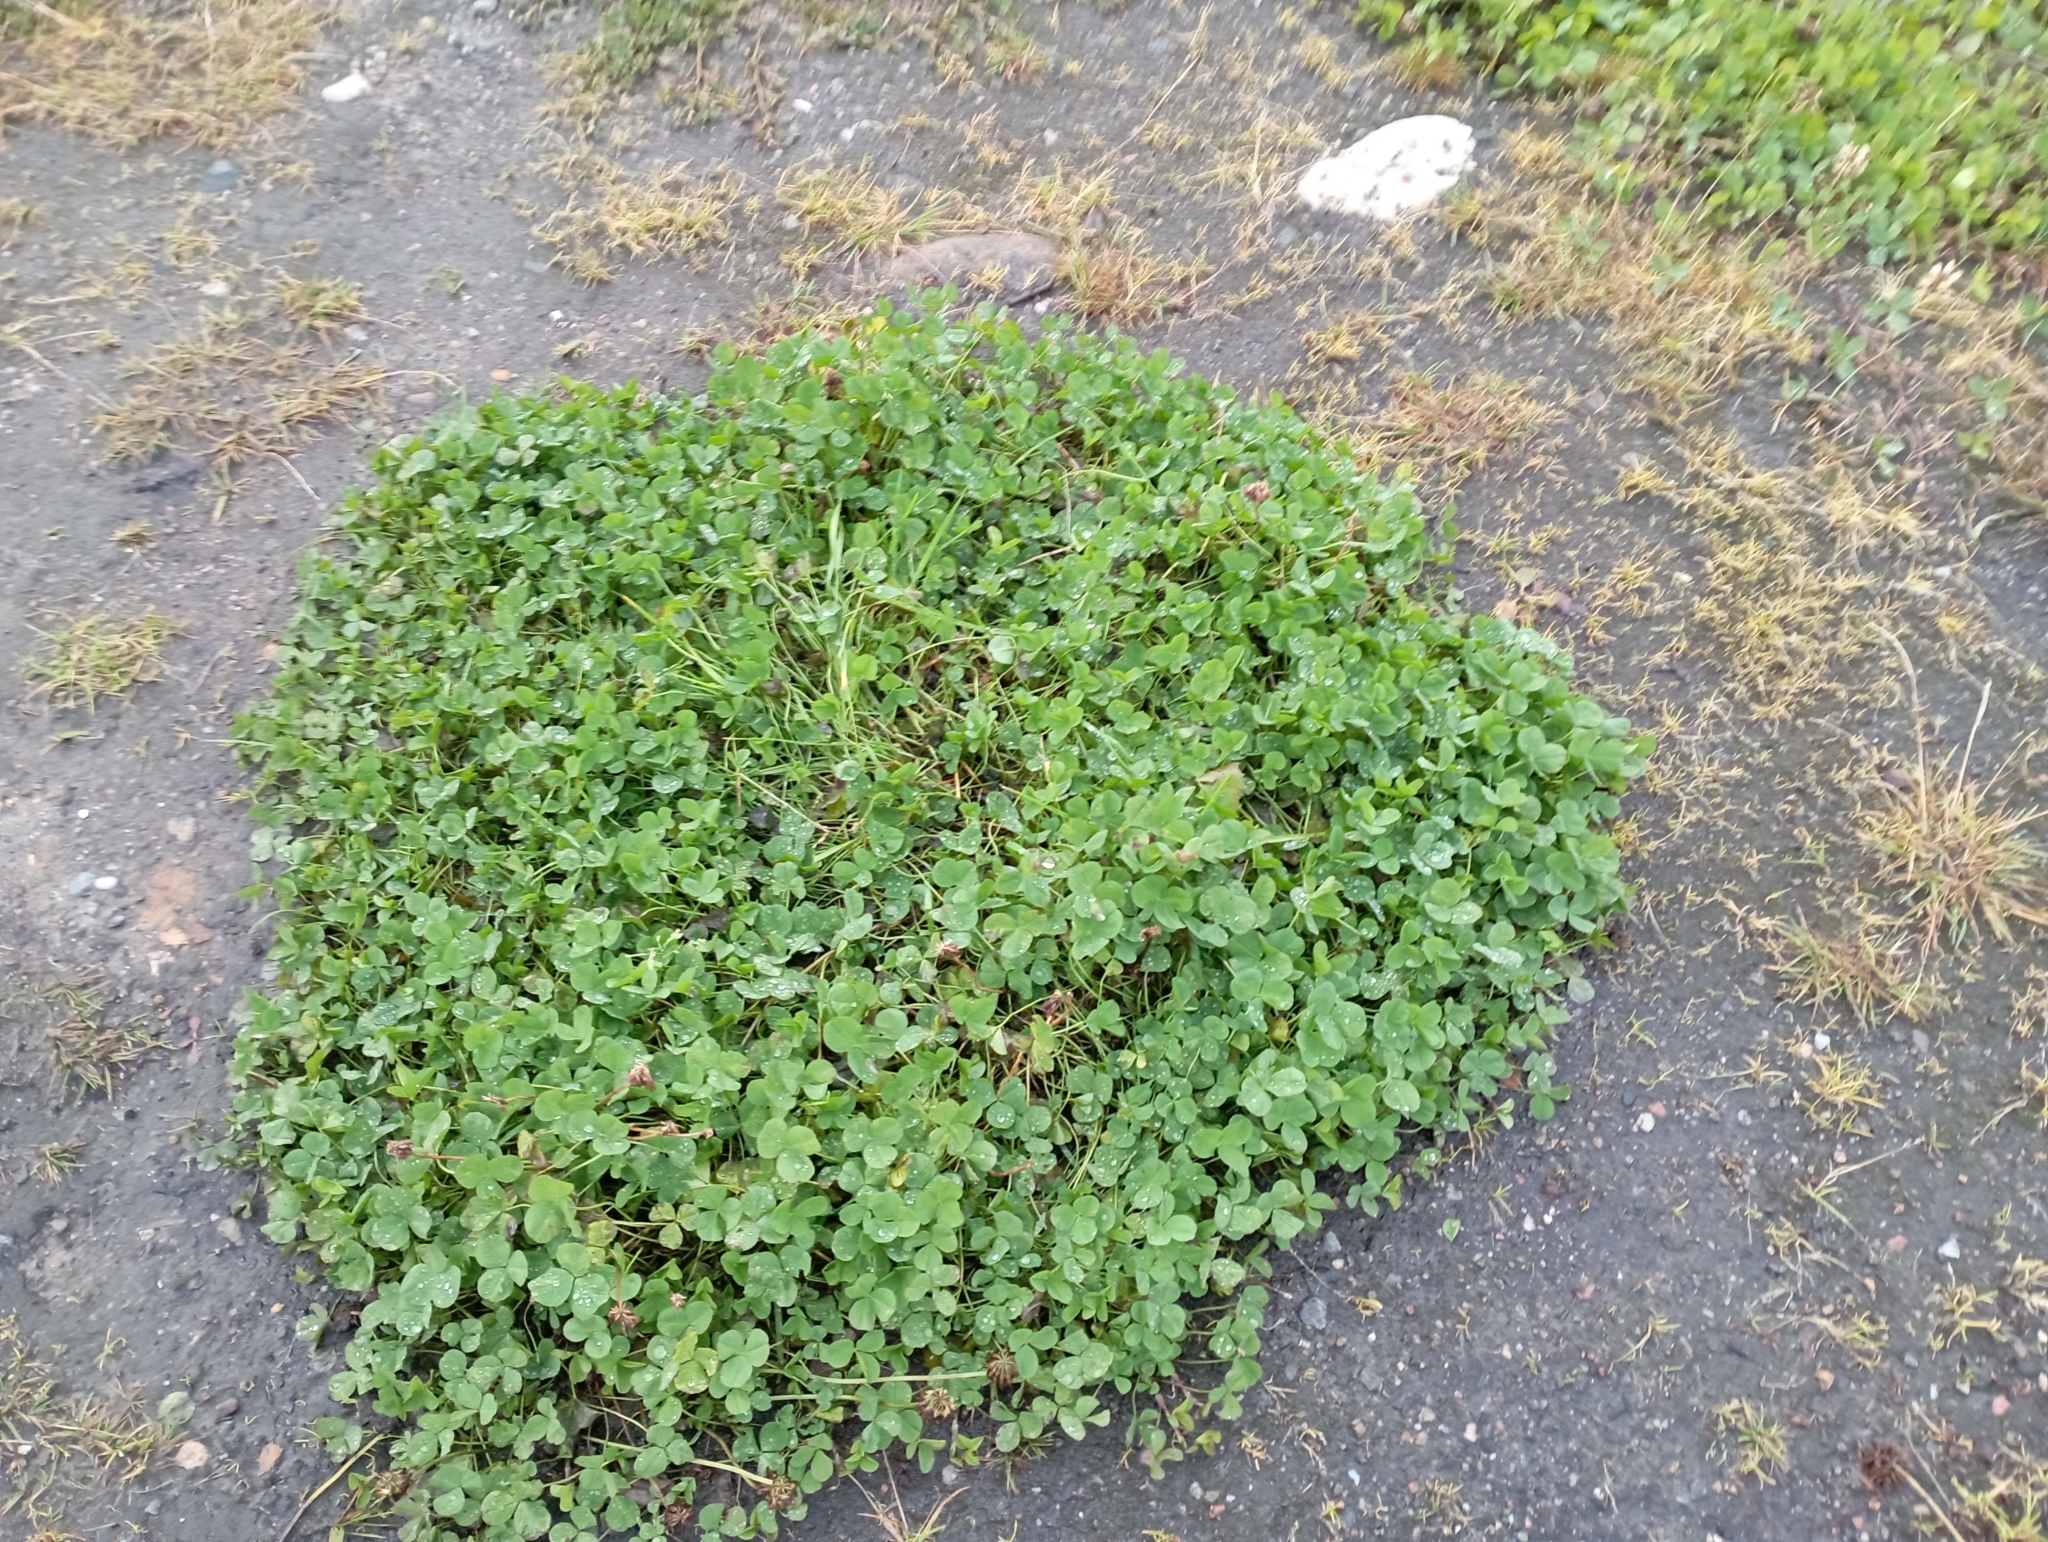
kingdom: Plantae
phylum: Tracheophyta
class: Magnoliopsida
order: Fabales
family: Fabaceae
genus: Trifolium
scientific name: Trifolium repens
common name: White clover
